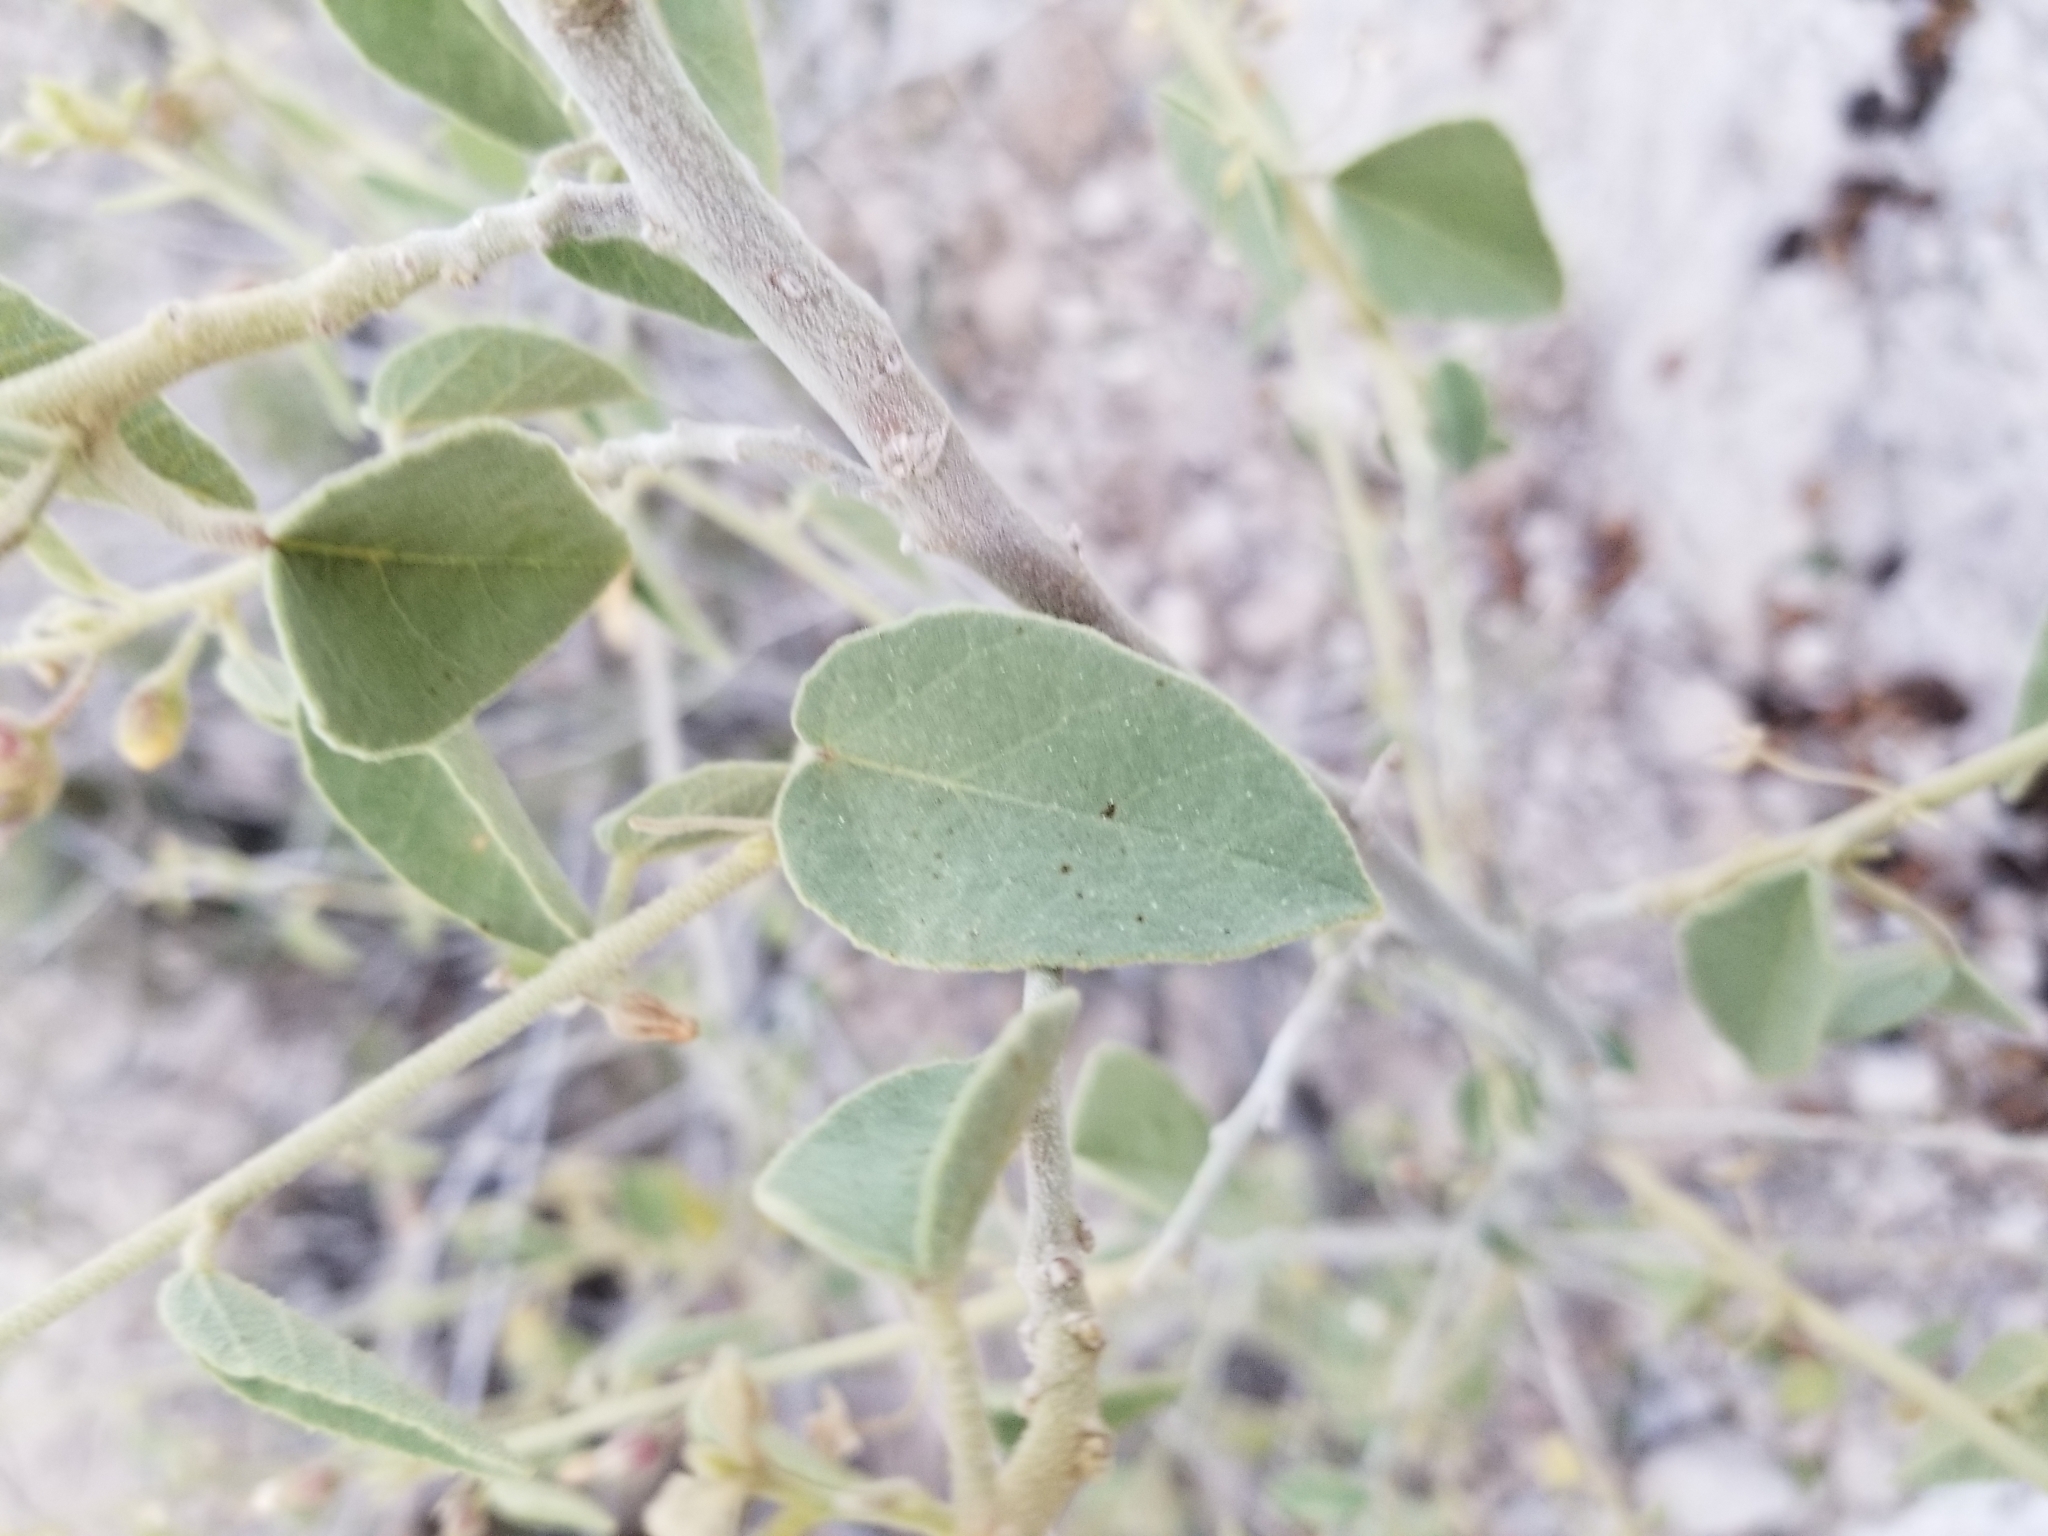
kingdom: Plantae
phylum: Tracheophyta
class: Magnoliopsida
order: Malvales
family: Malvaceae
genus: Horsfordia
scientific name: Horsfordia newberryi
